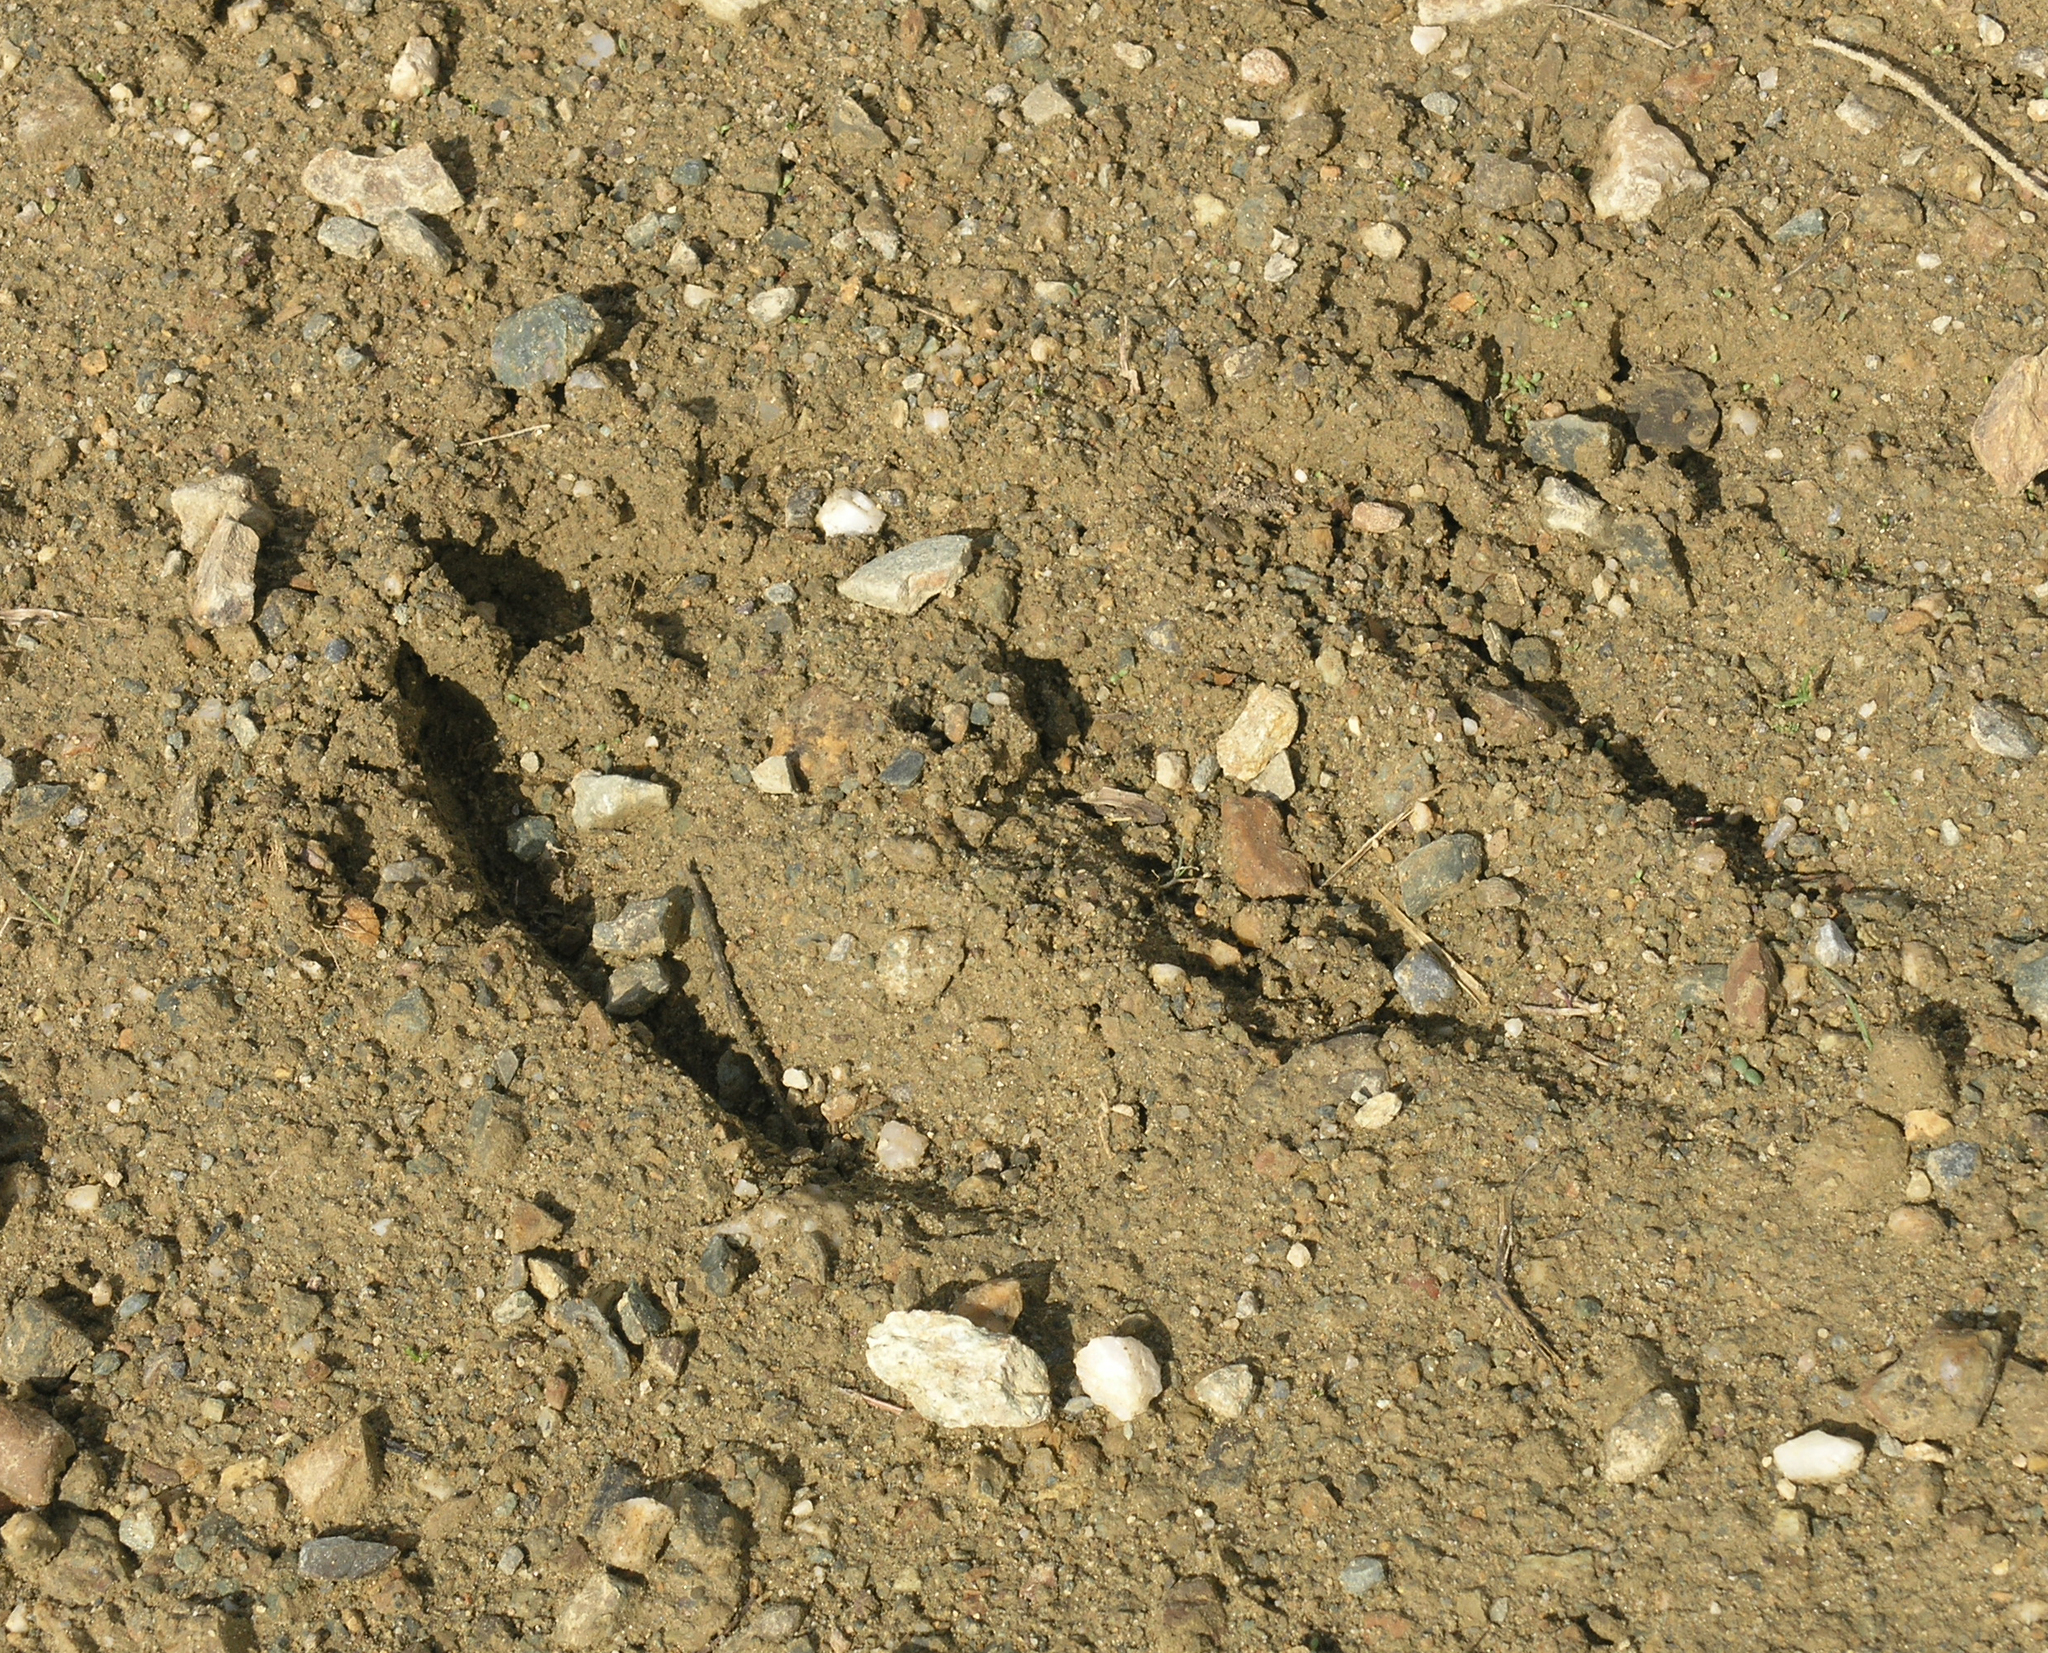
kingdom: Animalia
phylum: Chordata
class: Mammalia
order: Artiodactyla
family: Cervidae
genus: Alces
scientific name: Alces alces
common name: Moose
